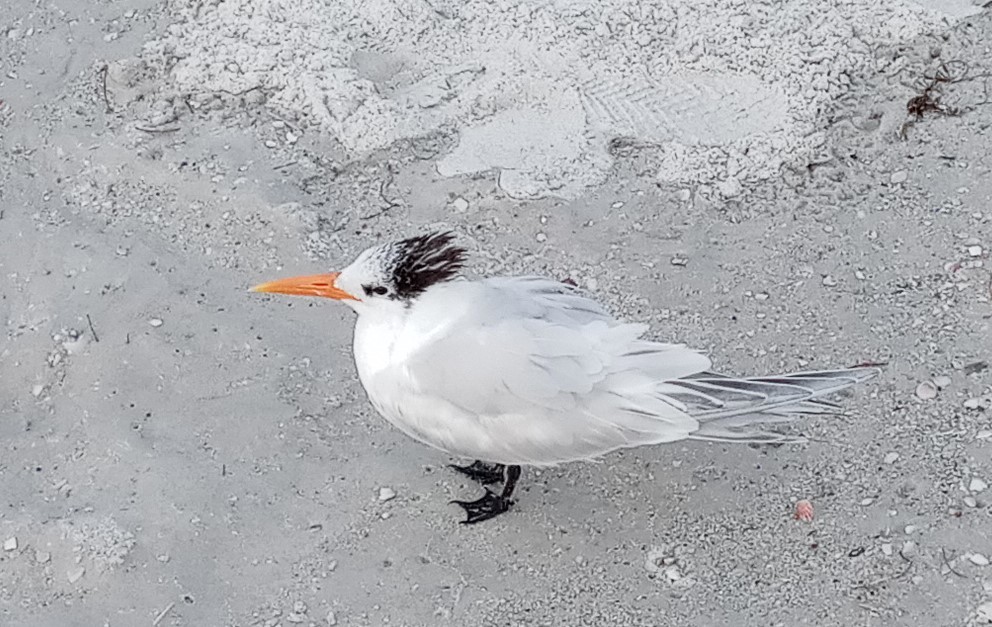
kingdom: Animalia
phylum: Chordata
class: Aves
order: Charadriiformes
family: Laridae
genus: Thalasseus
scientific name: Thalasseus maximus
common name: Royal tern
